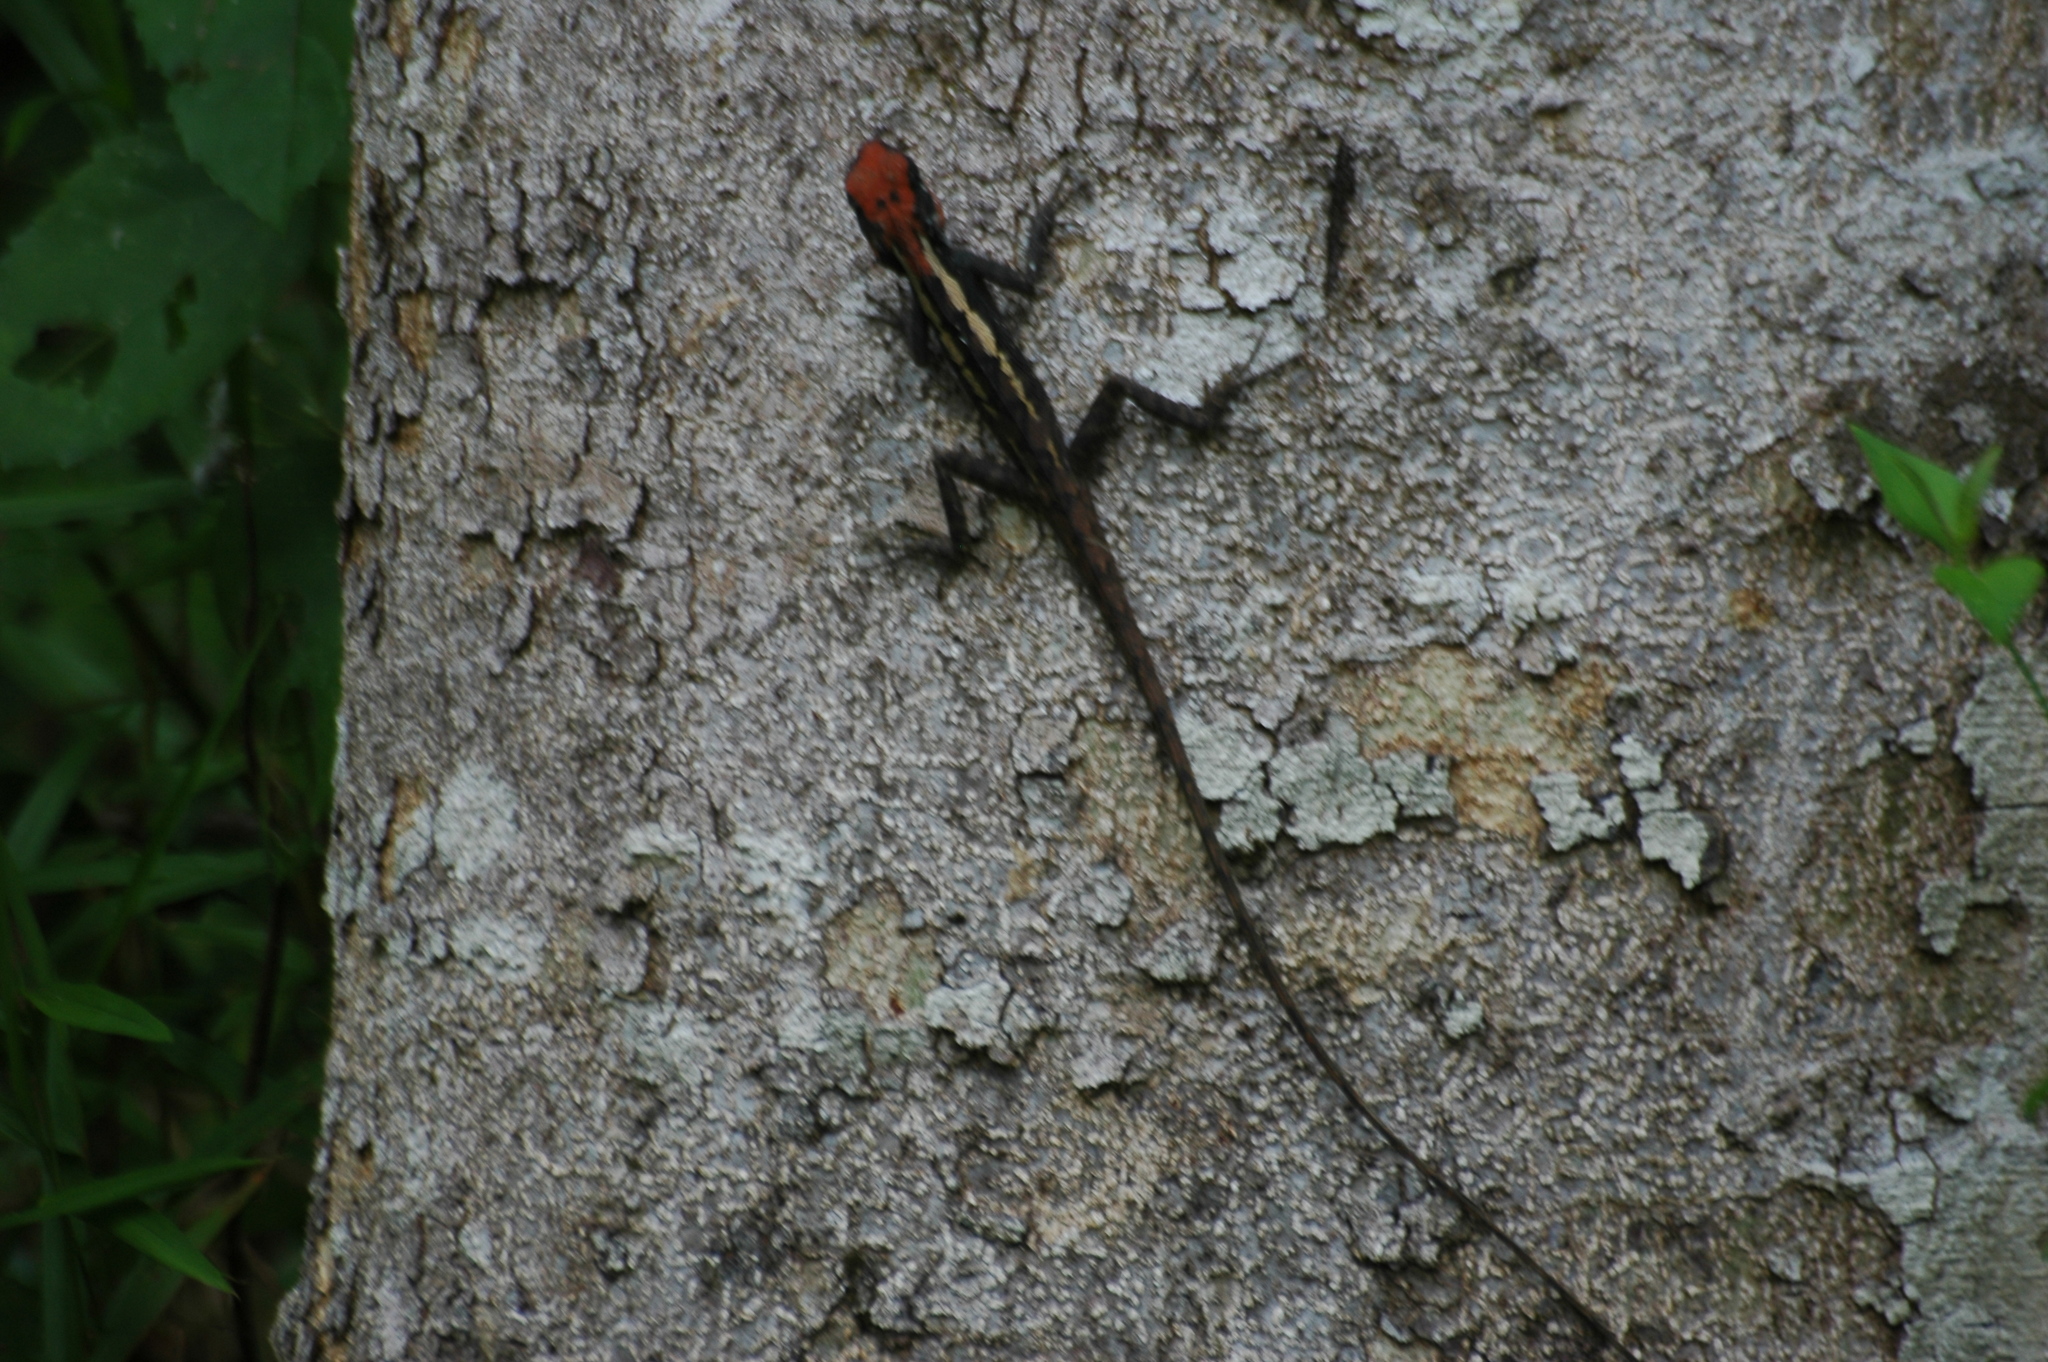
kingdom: Animalia
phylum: Chordata
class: Squamata
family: Agamidae
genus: Calotes
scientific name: Calotes emma
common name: Thailand bloodsucker
